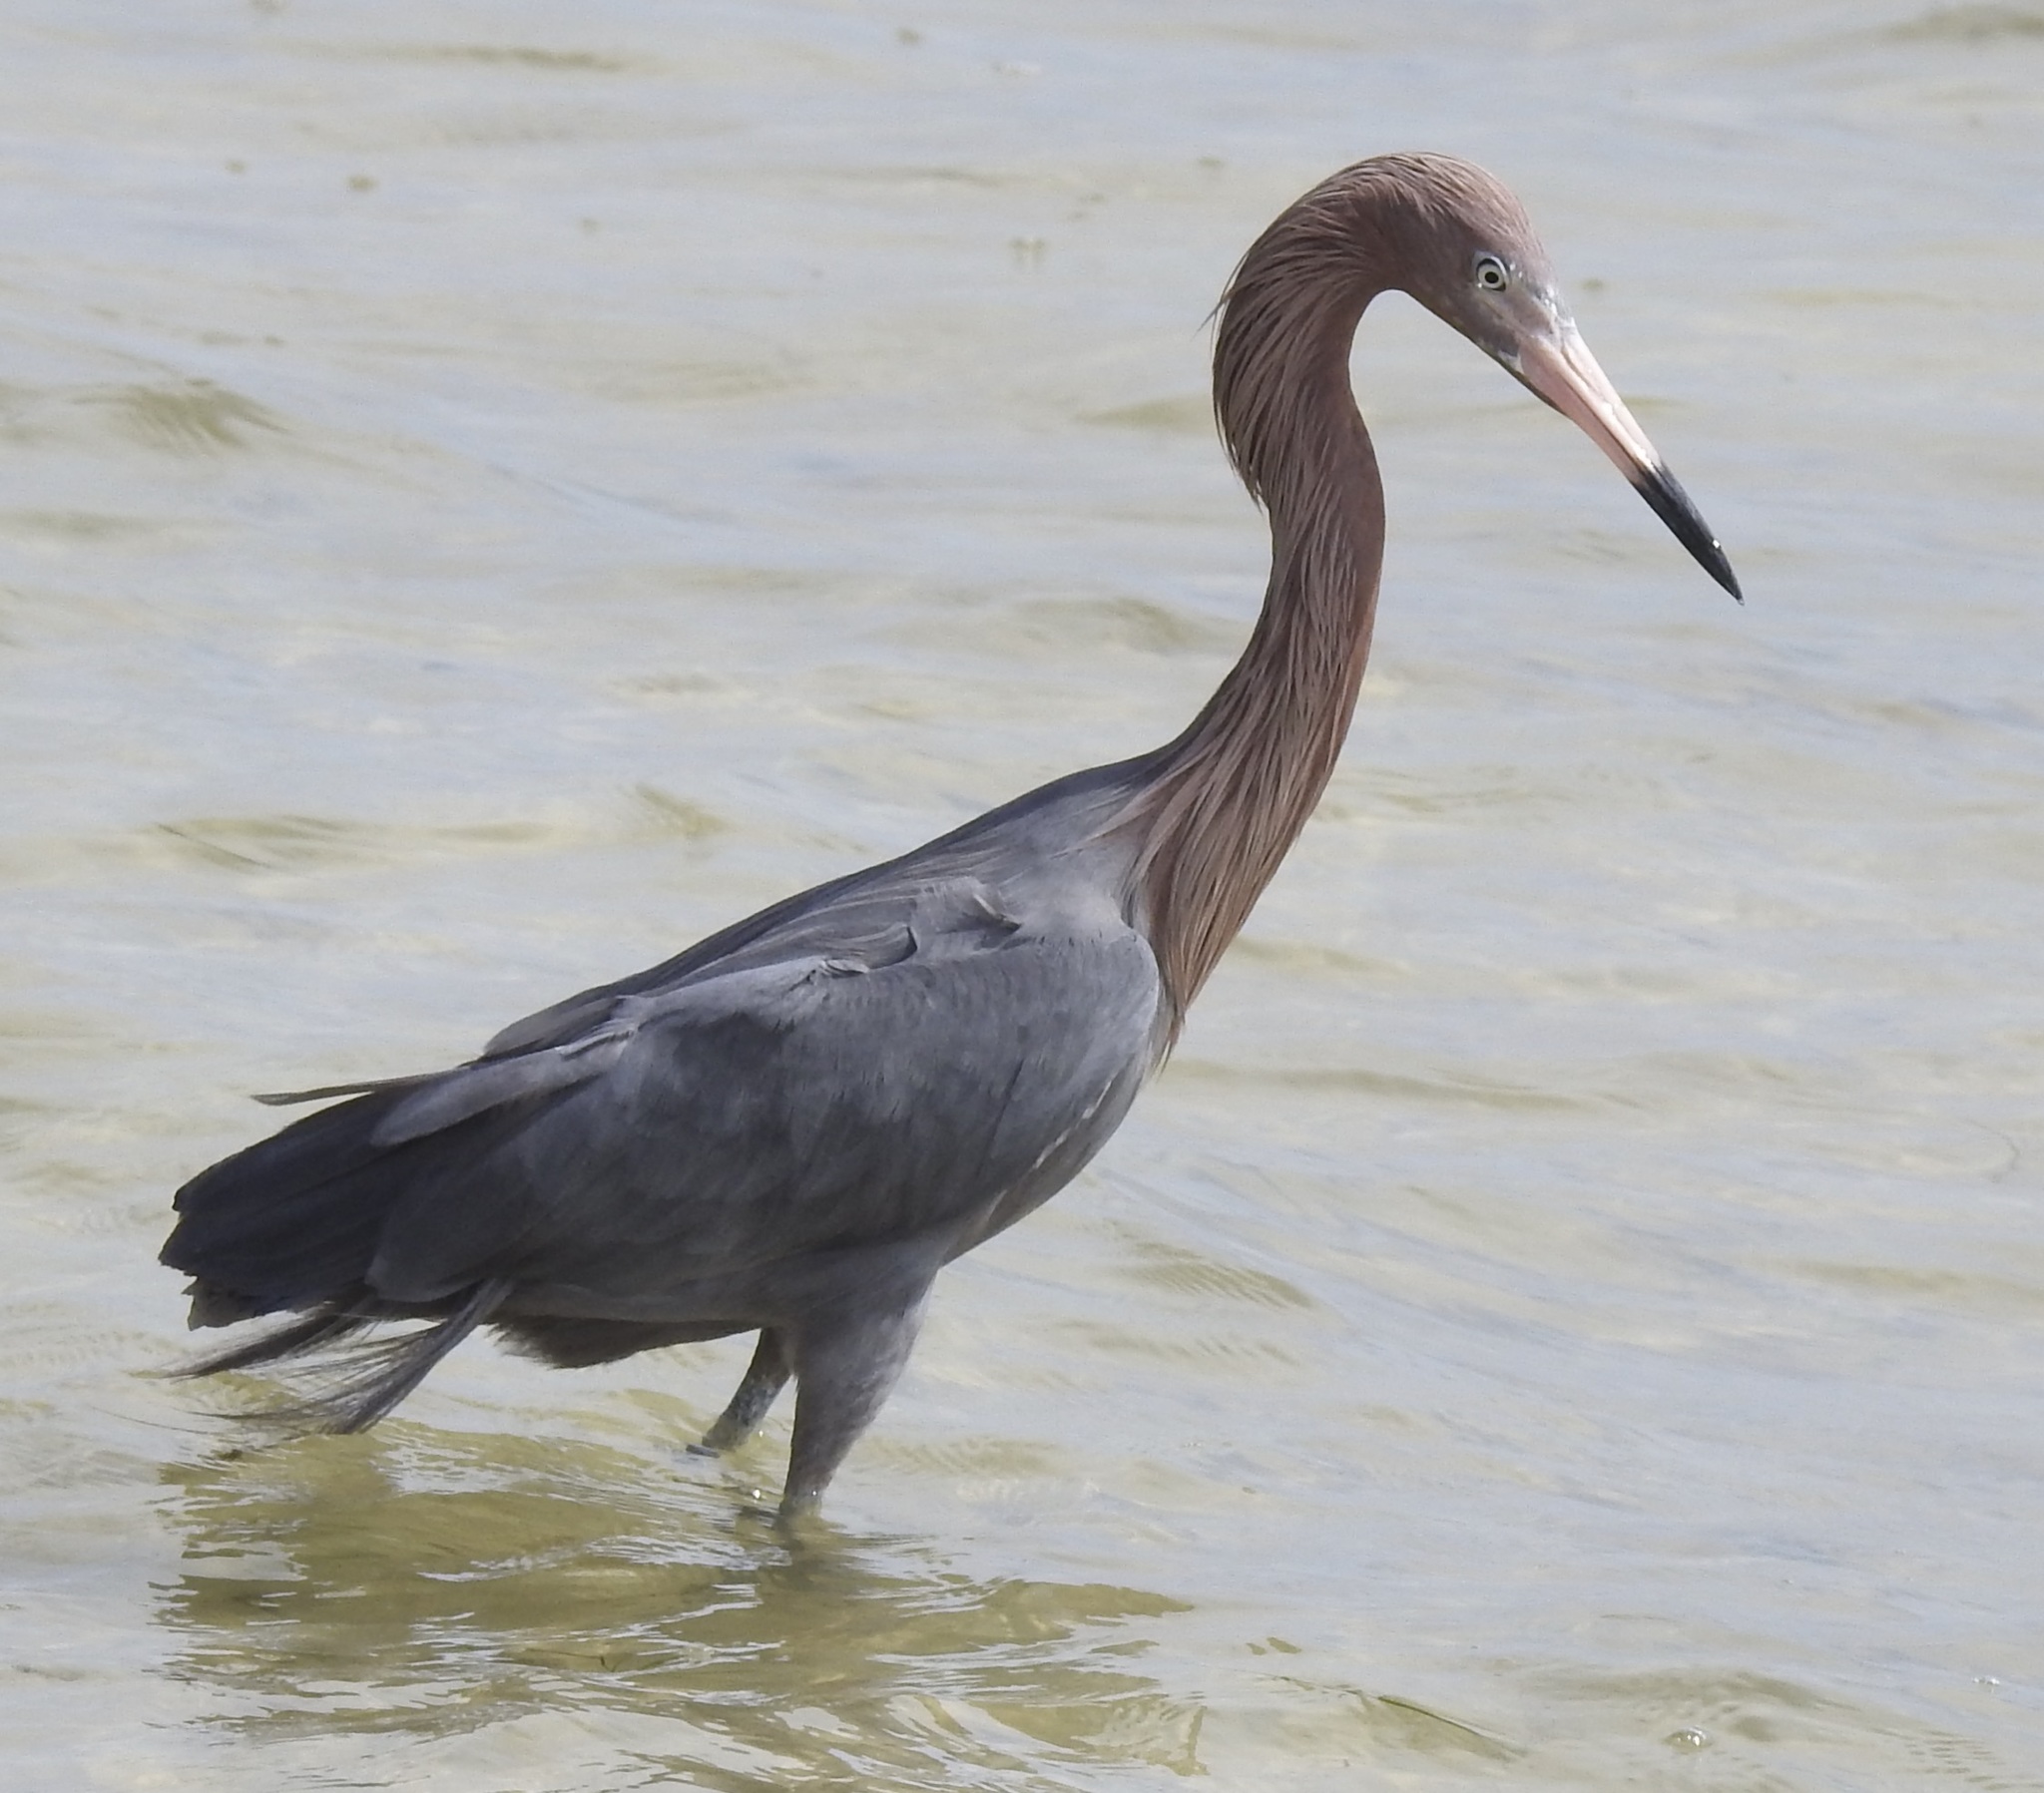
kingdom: Animalia
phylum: Chordata
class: Aves
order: Pelecaniformes
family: Ardeidae
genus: Egretta
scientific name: Egretta rufescens
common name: Reddish egret
